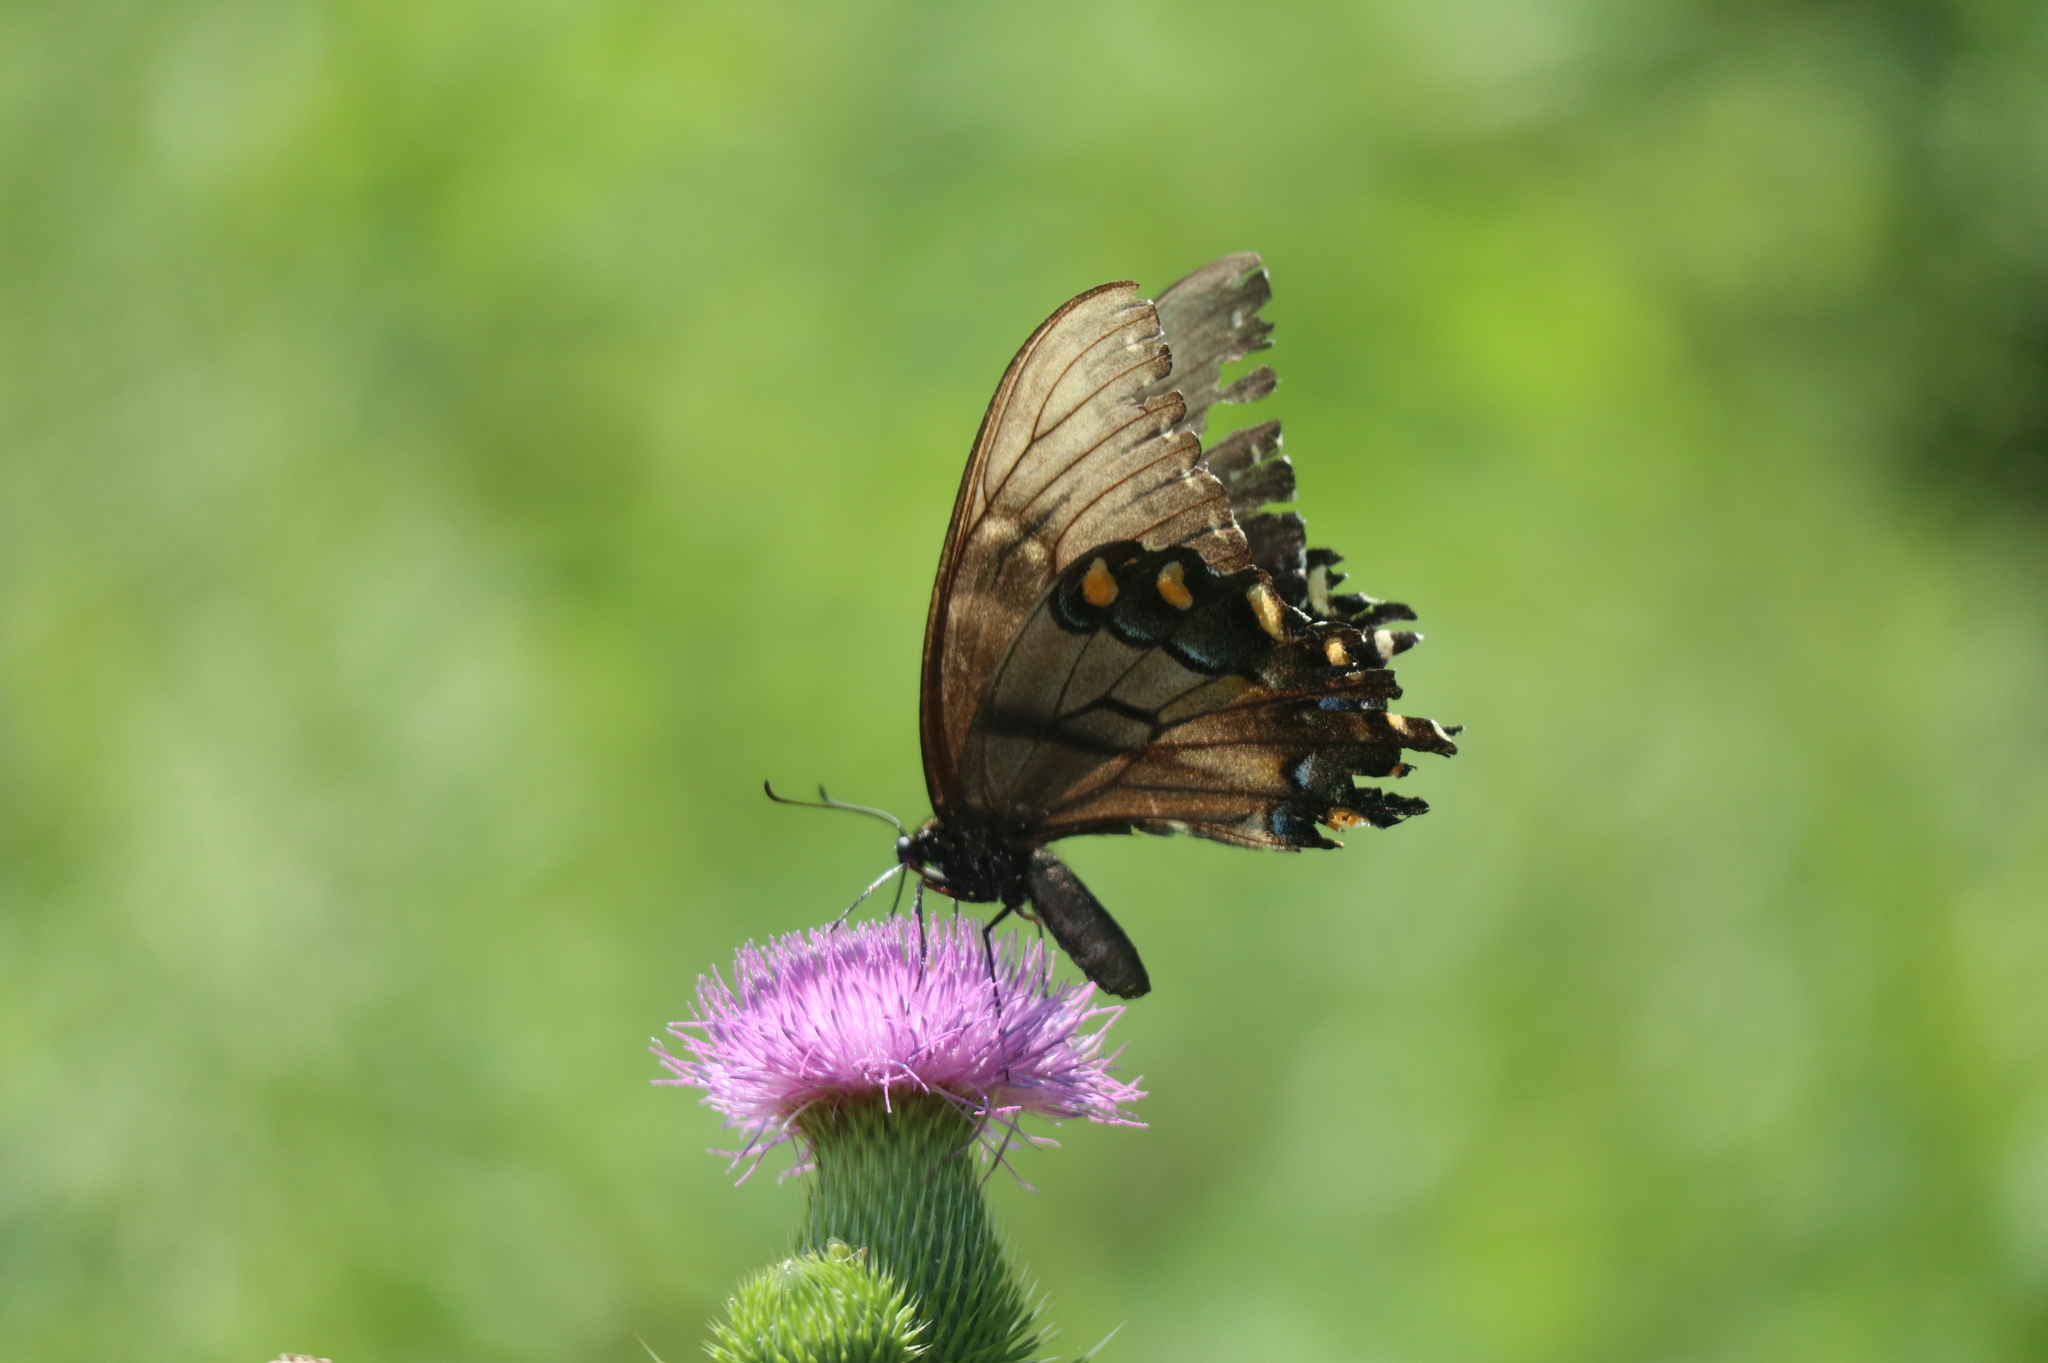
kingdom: Animalia
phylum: Arthropoda
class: Insecta
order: Lepidoptera
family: Papilionidae
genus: Papilio
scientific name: Papilio glaucus
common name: Tiger swallowtail
